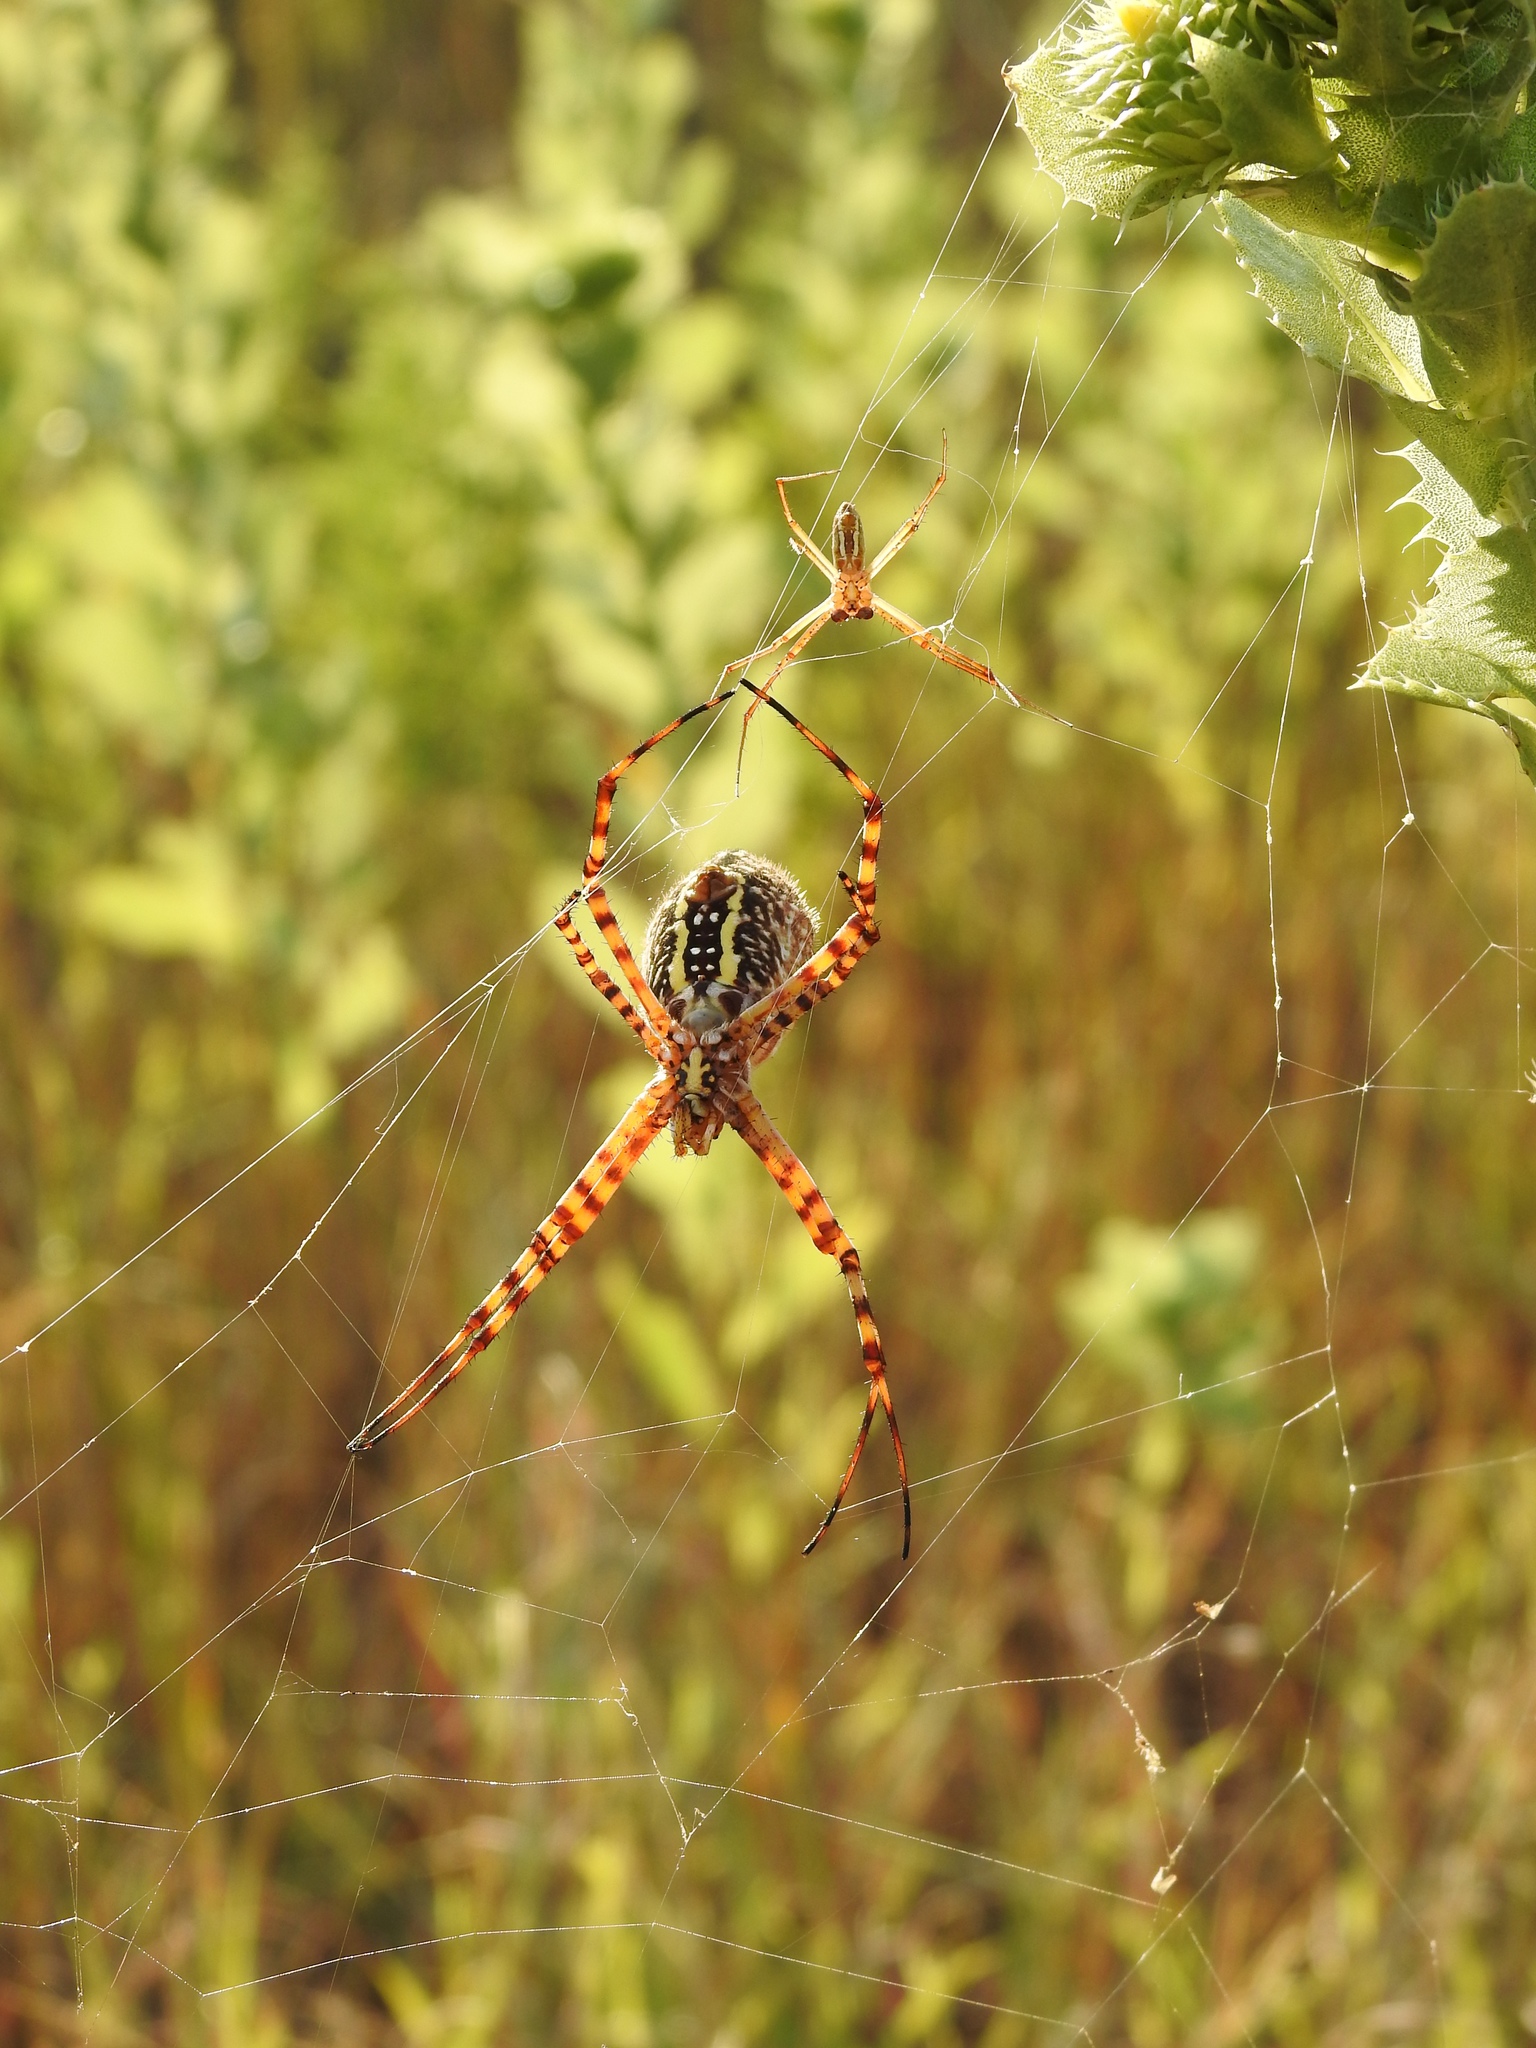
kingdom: Animalia
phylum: Arthropoda
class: Arachnida
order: Araneae
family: Araneidae
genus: Argiope
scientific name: Argiope trifasciata
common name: Banded garden spider
